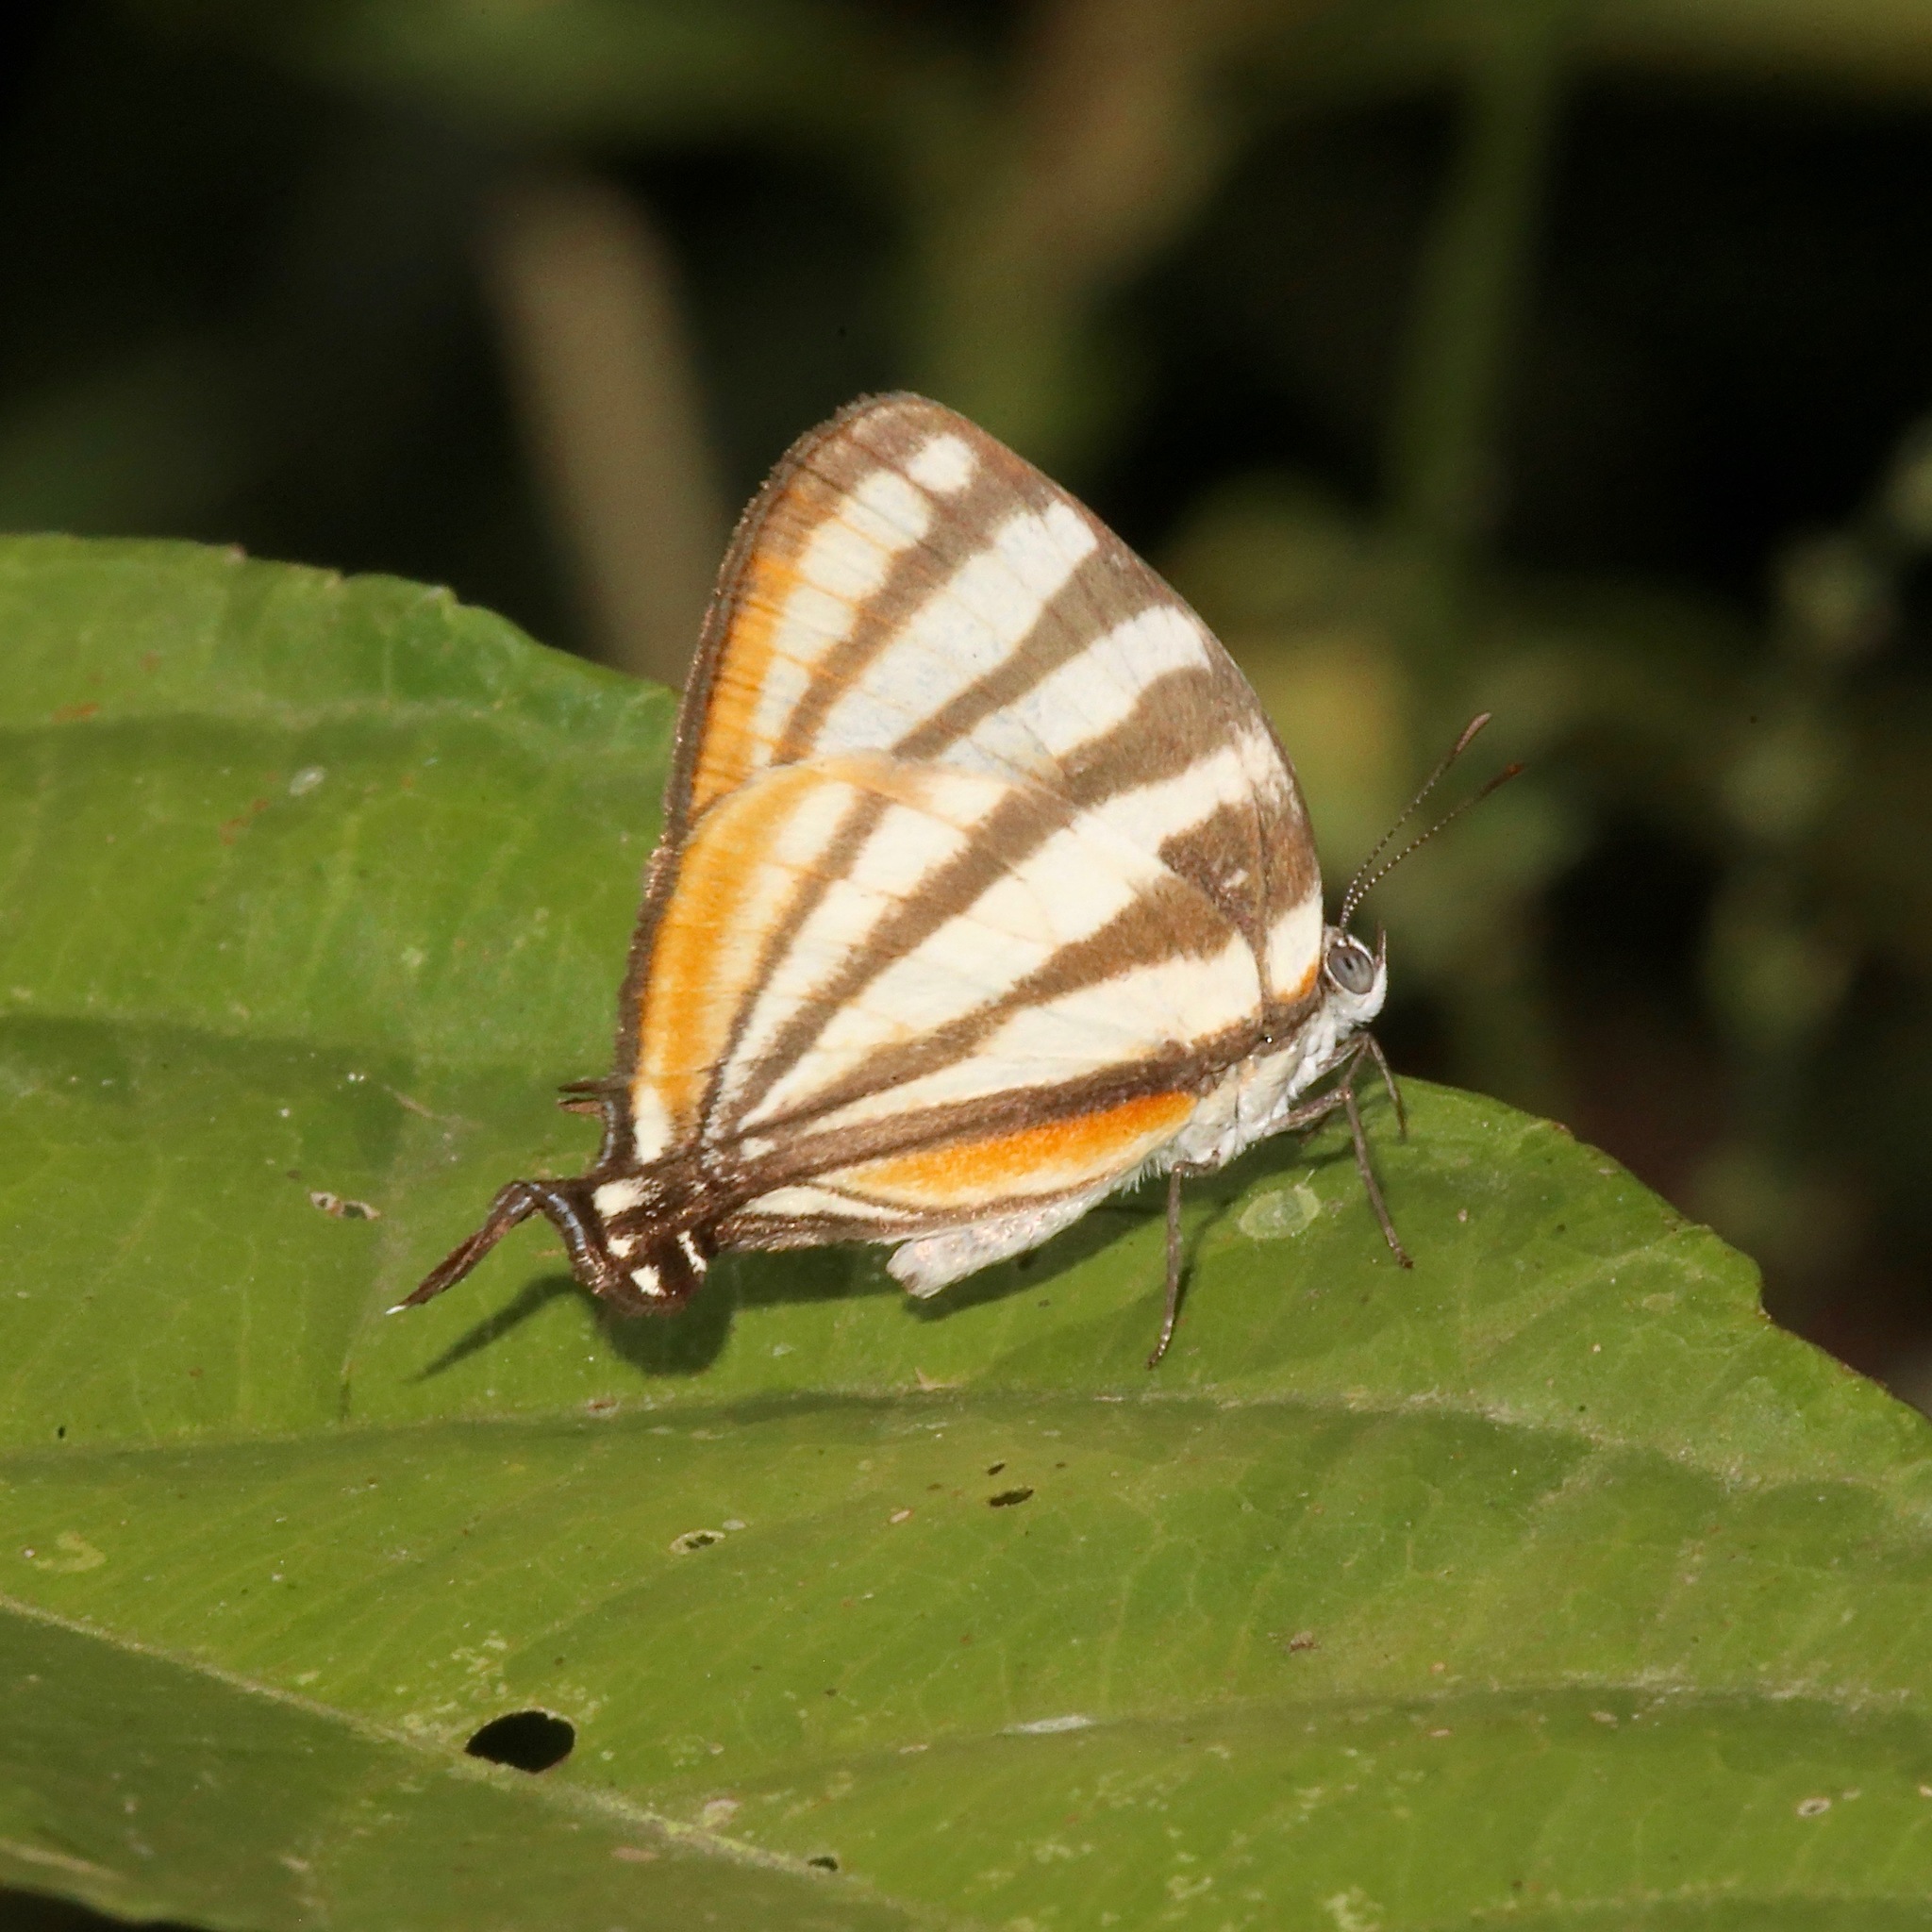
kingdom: Animalia
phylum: Arthropoda
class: Insecta
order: Lepidoptera
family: Lycaenidae
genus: Arawacus
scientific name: Arawacus lincoides
